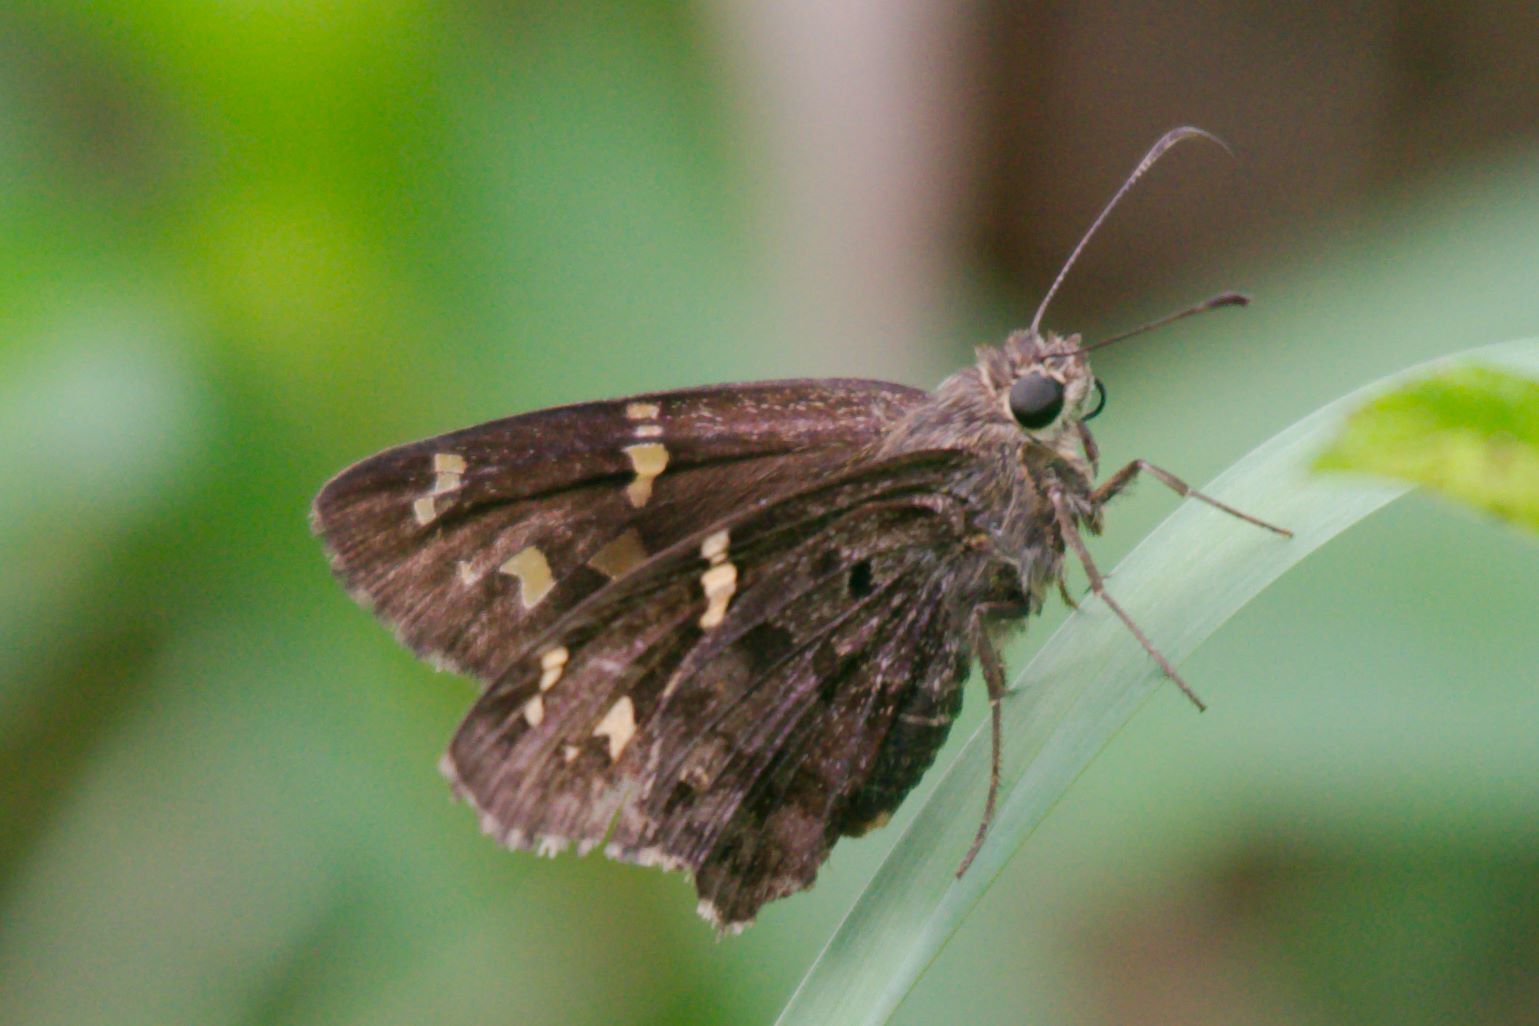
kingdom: Animalia
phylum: Arthropoda
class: Insecta
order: Lepidoptera
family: Hesperiidae
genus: Thorybes
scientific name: Thorybes
